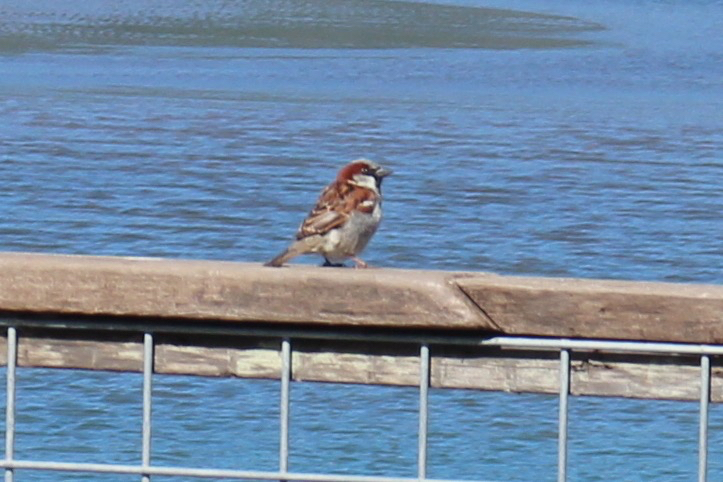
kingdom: Animalia
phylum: Chordata
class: Aves
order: Passeriformes
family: Passeridae
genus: Passer
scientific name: Passer domesticus
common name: House sparrow
